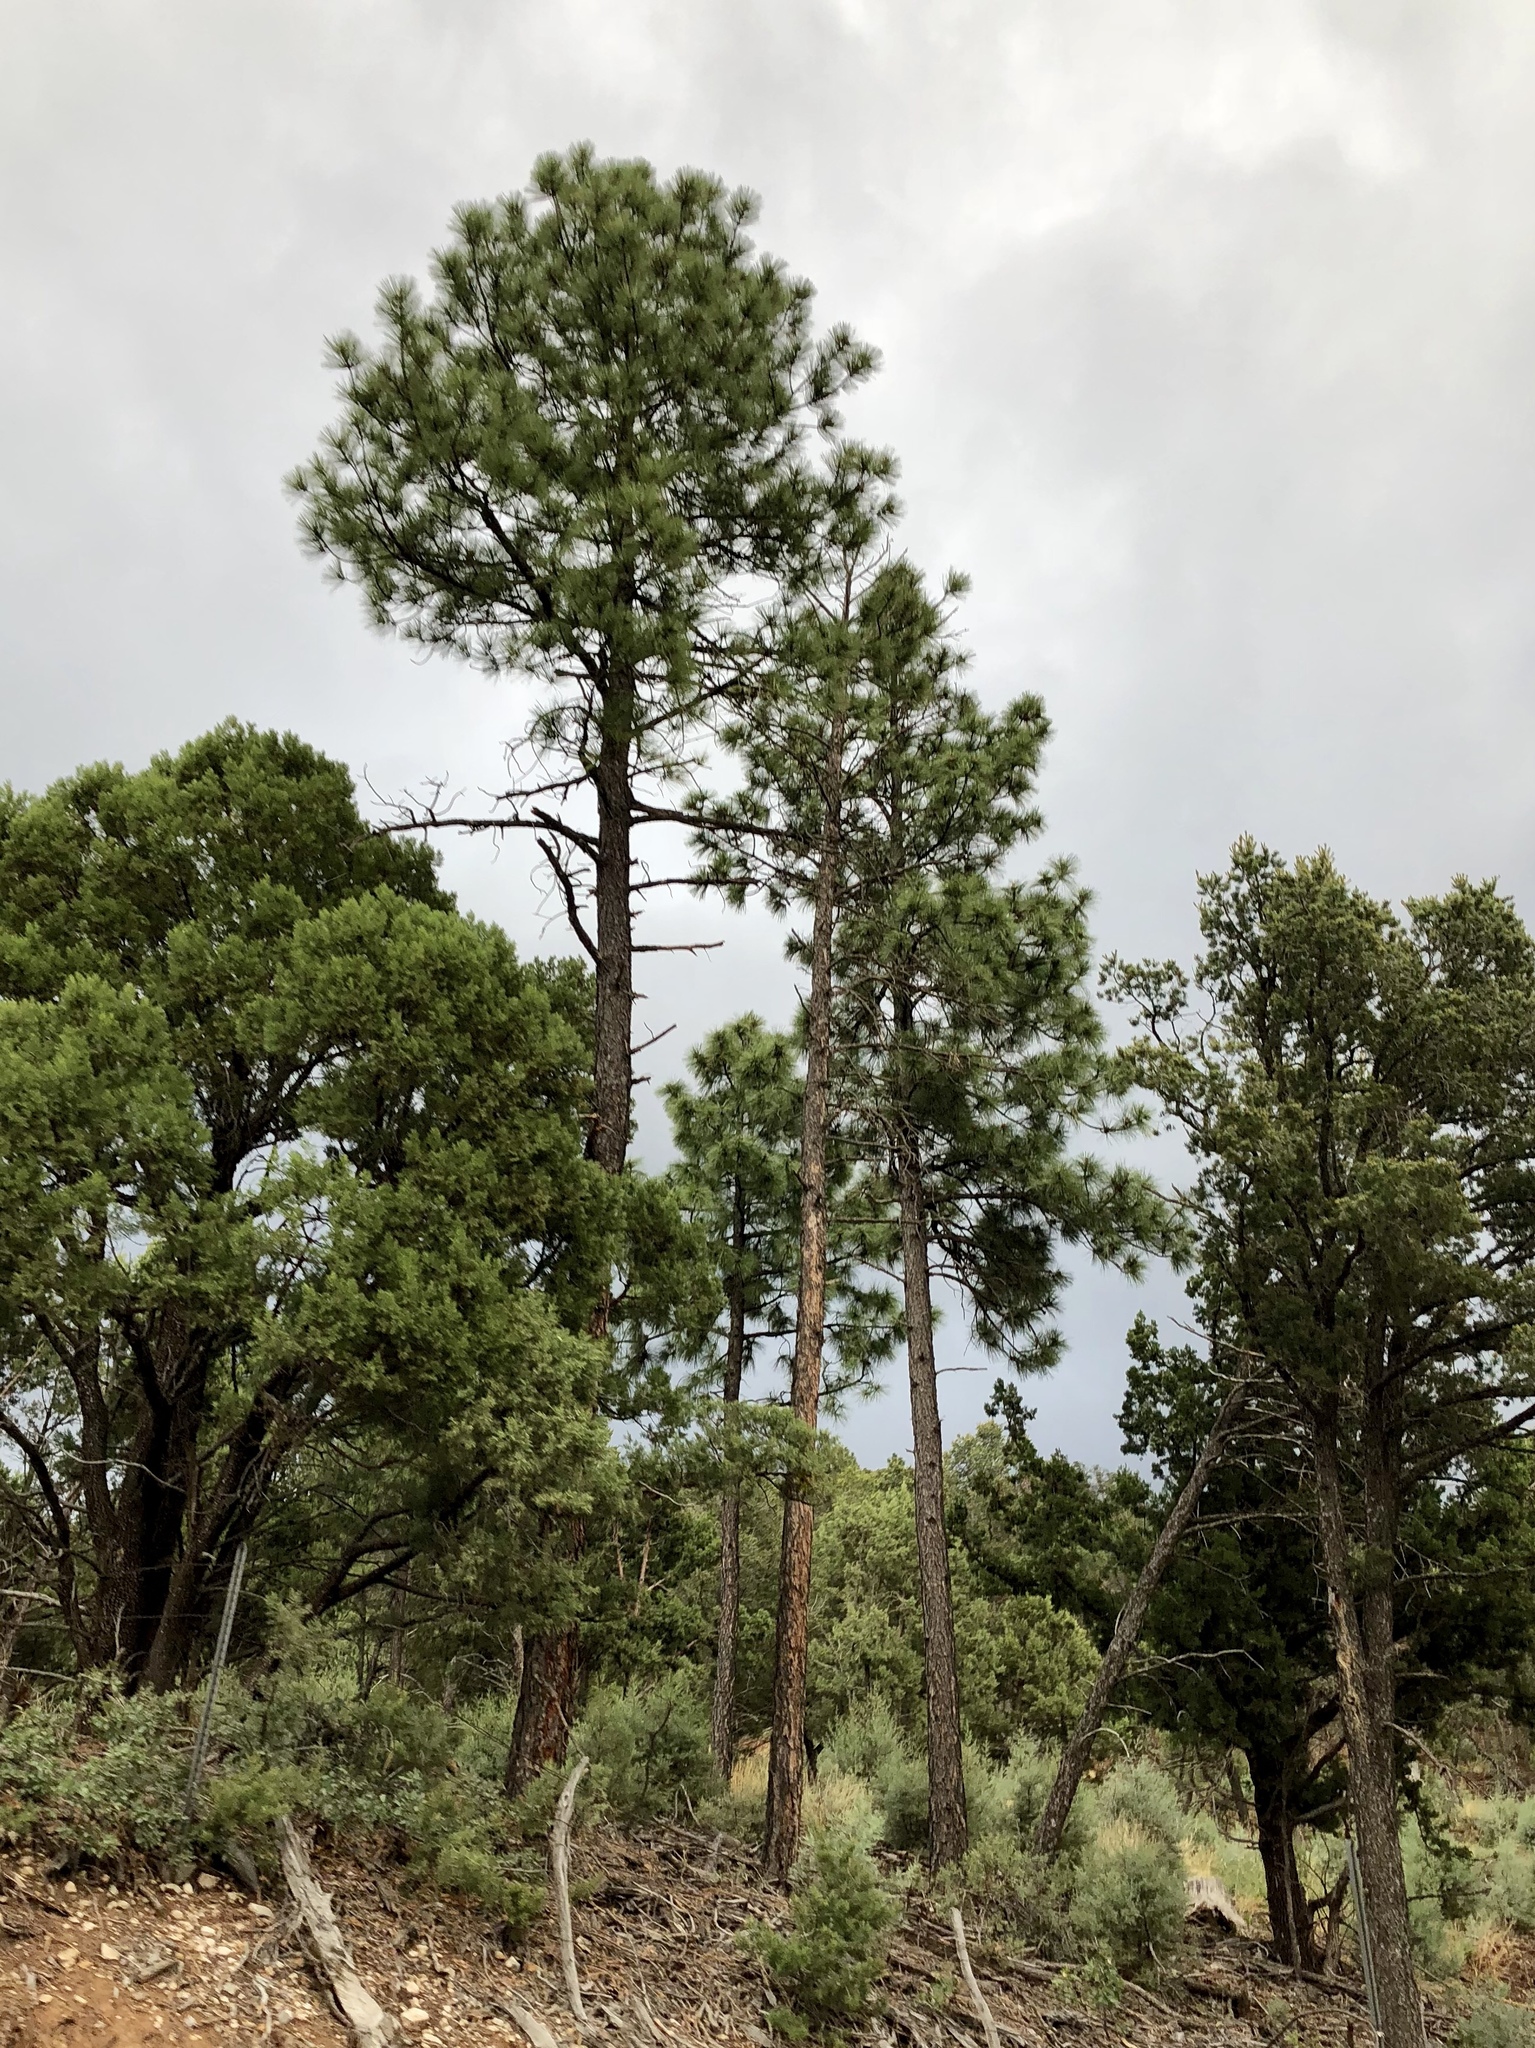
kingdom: Plantae
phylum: Tracheophyta
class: Pinopsida
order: Pinales
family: Pinaceae
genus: Pinus
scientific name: Pinus ponderosa
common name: Western yellow-pine
